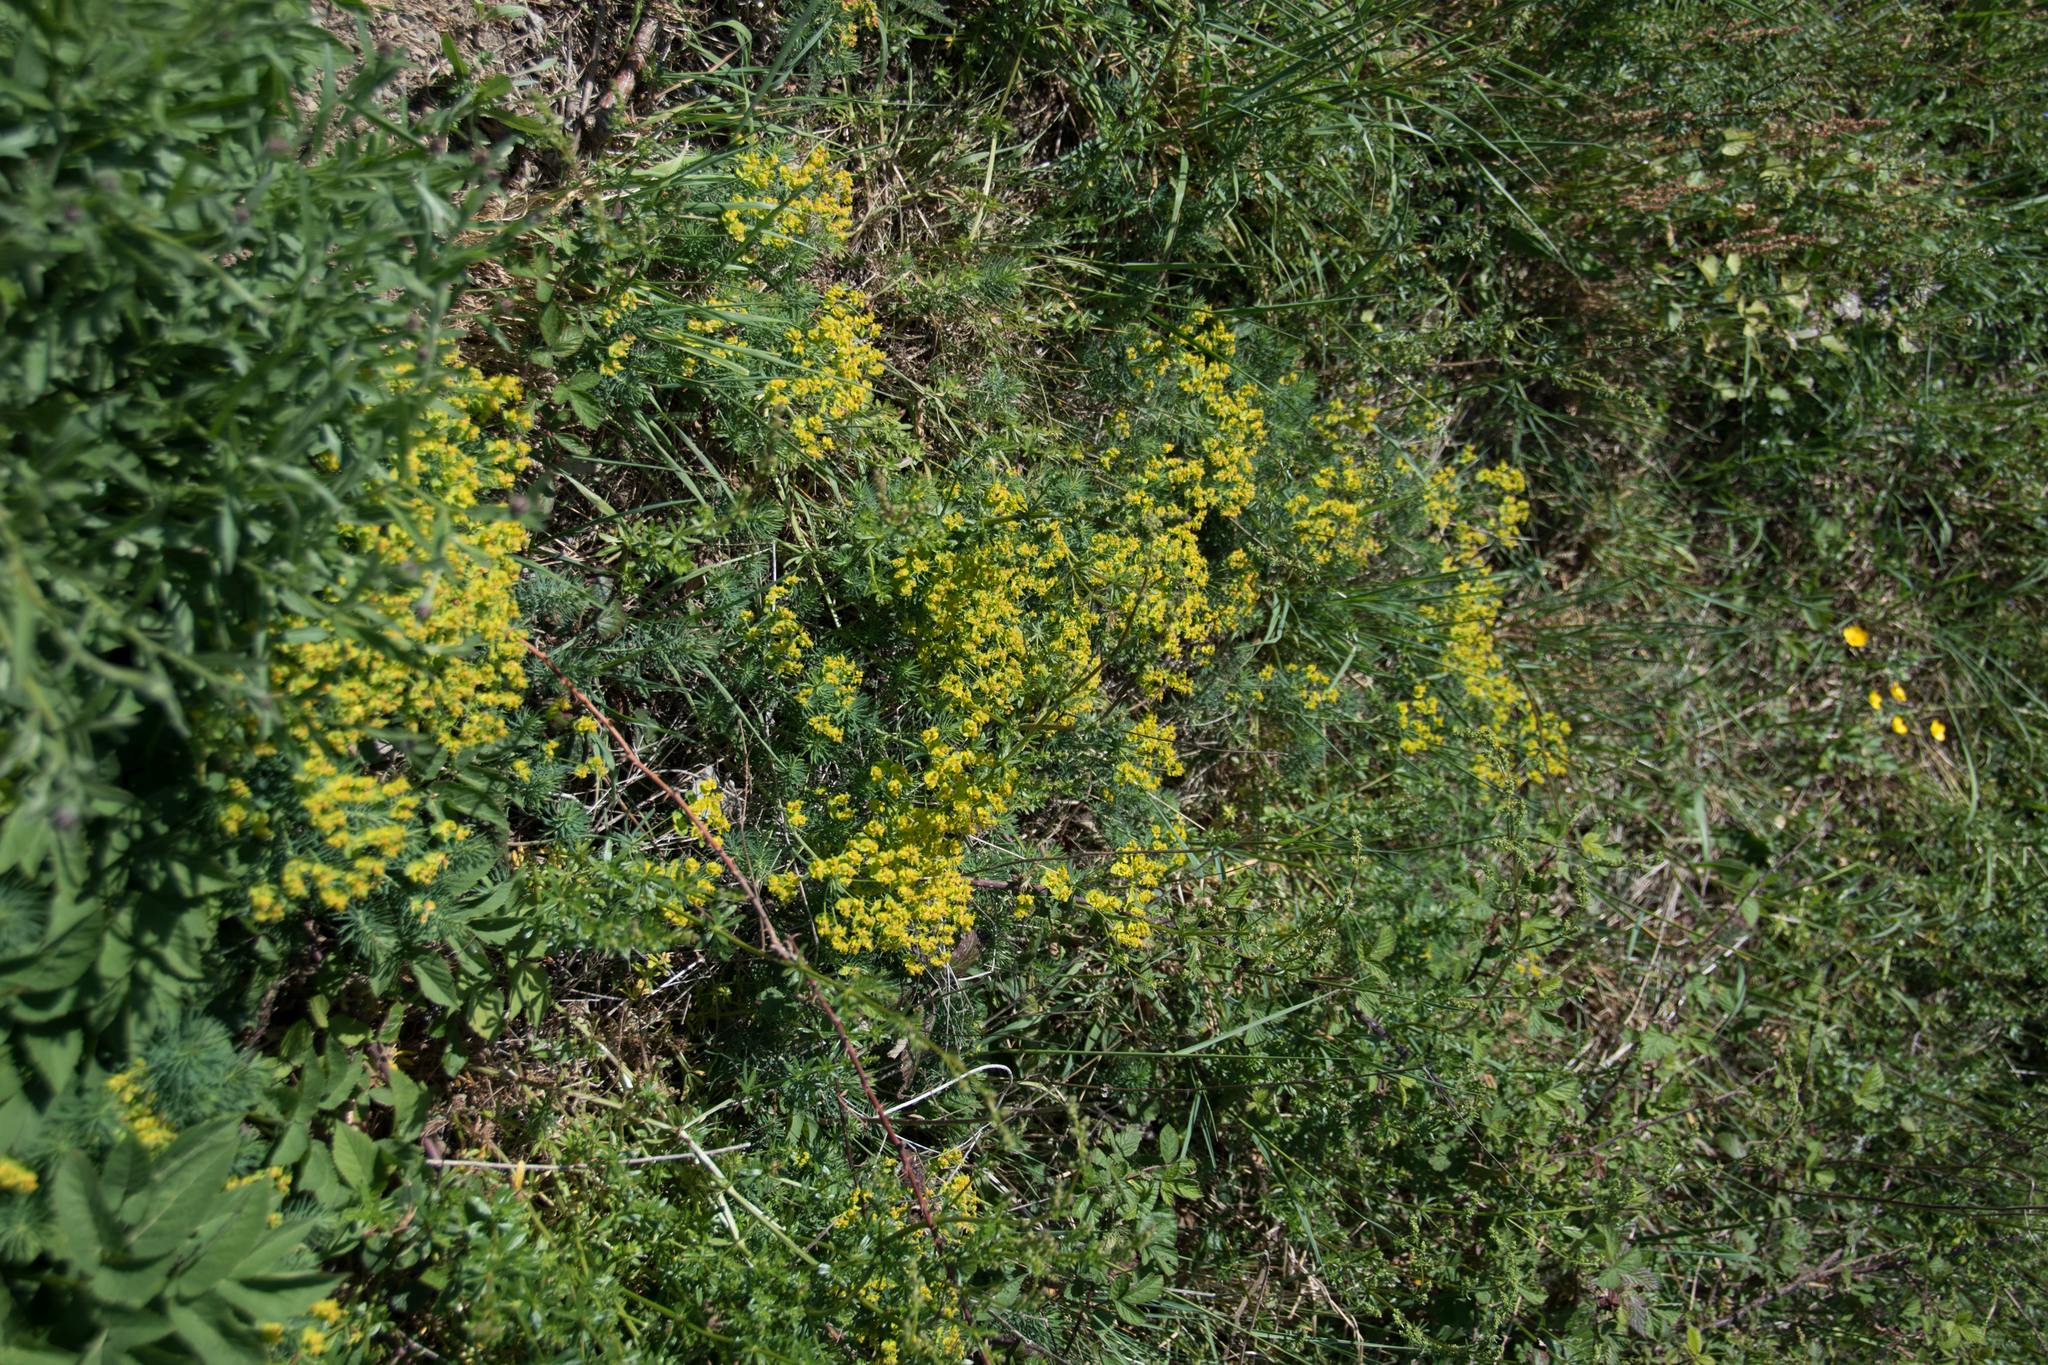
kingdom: Plantae
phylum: Tracheophyta
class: Magnoliopsida
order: Malpighiales
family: Euphorbiaceae
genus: Euphorbia
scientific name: Euphorbia cyparissias
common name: Cypress spurge
